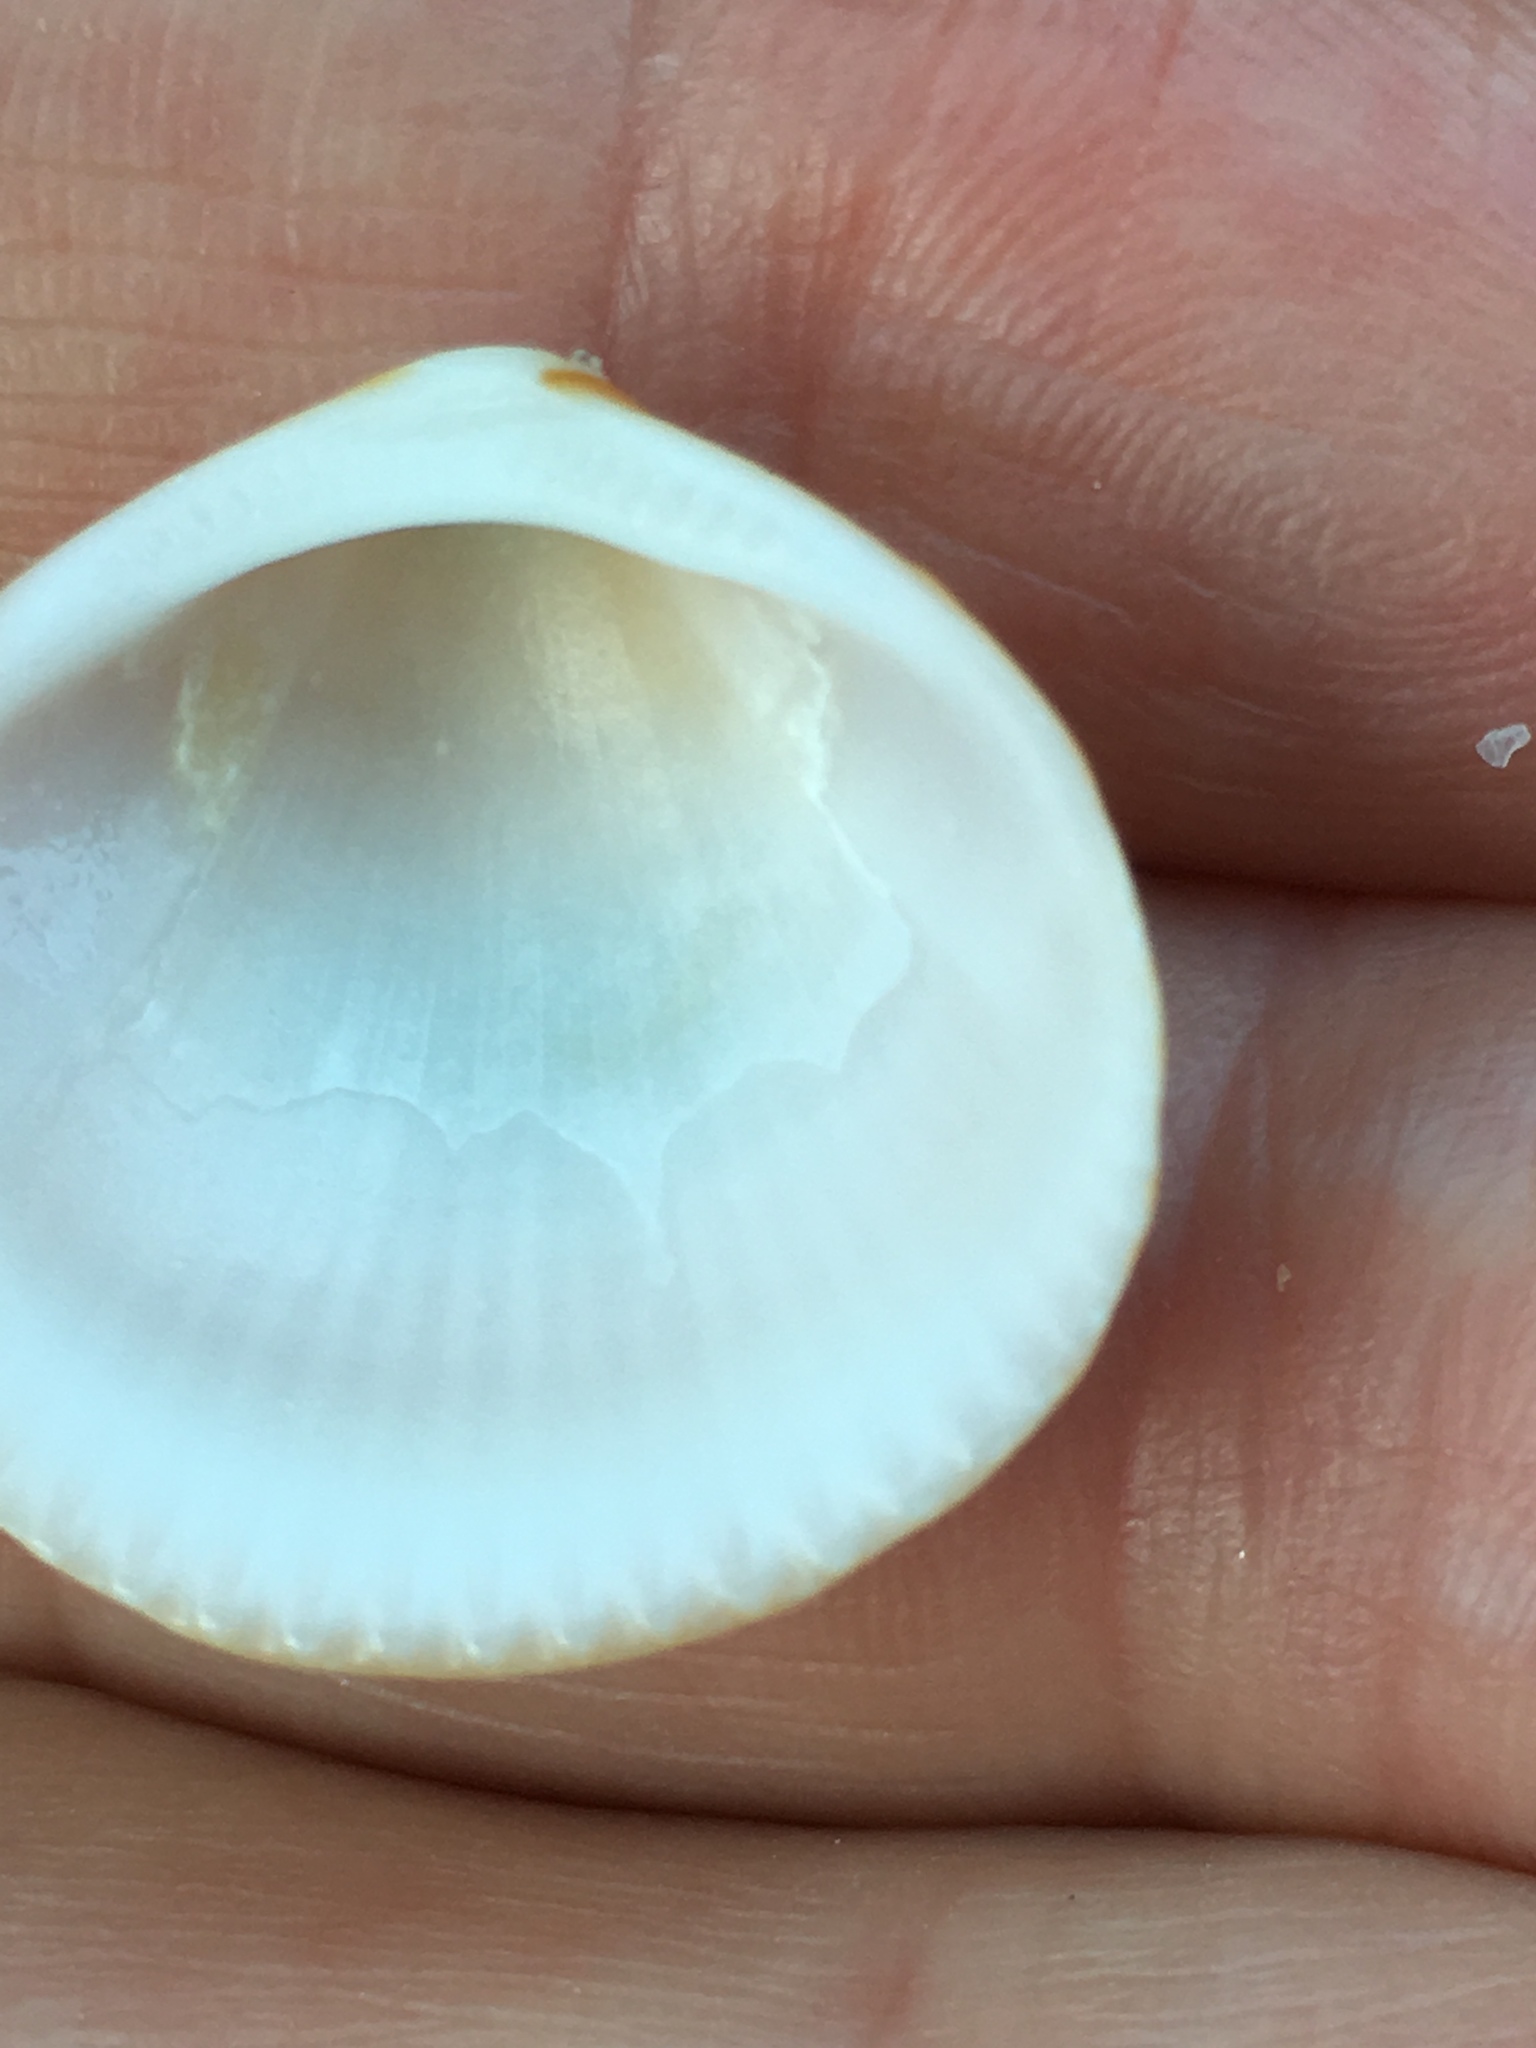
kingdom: Animalia
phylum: Mollusca
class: Bivalvia
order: Arcida
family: Glycymerididae
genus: Glycymeris
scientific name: Glycymeris spectralis
